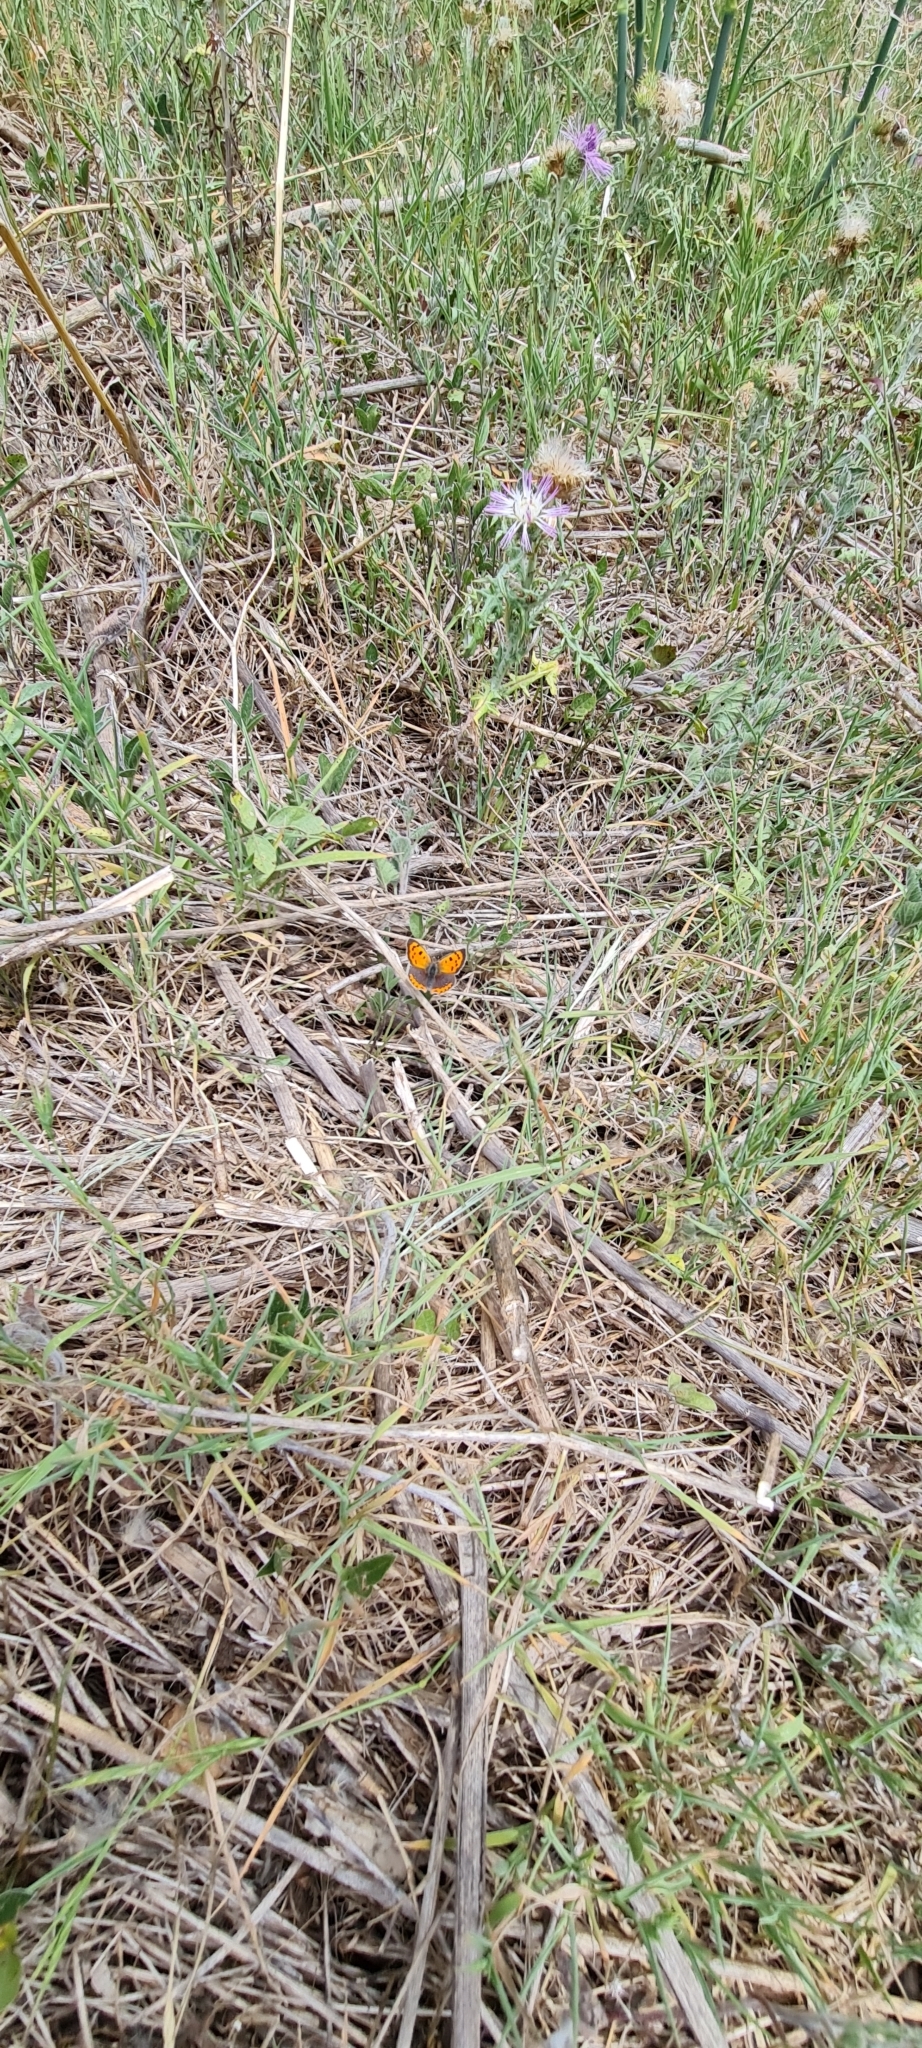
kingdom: Animalia
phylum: Arthropoda
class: Insecta
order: Lepidoptera
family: Lycaenidae
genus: Lycaena
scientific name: Lycaena phlaeas
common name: Small copper
